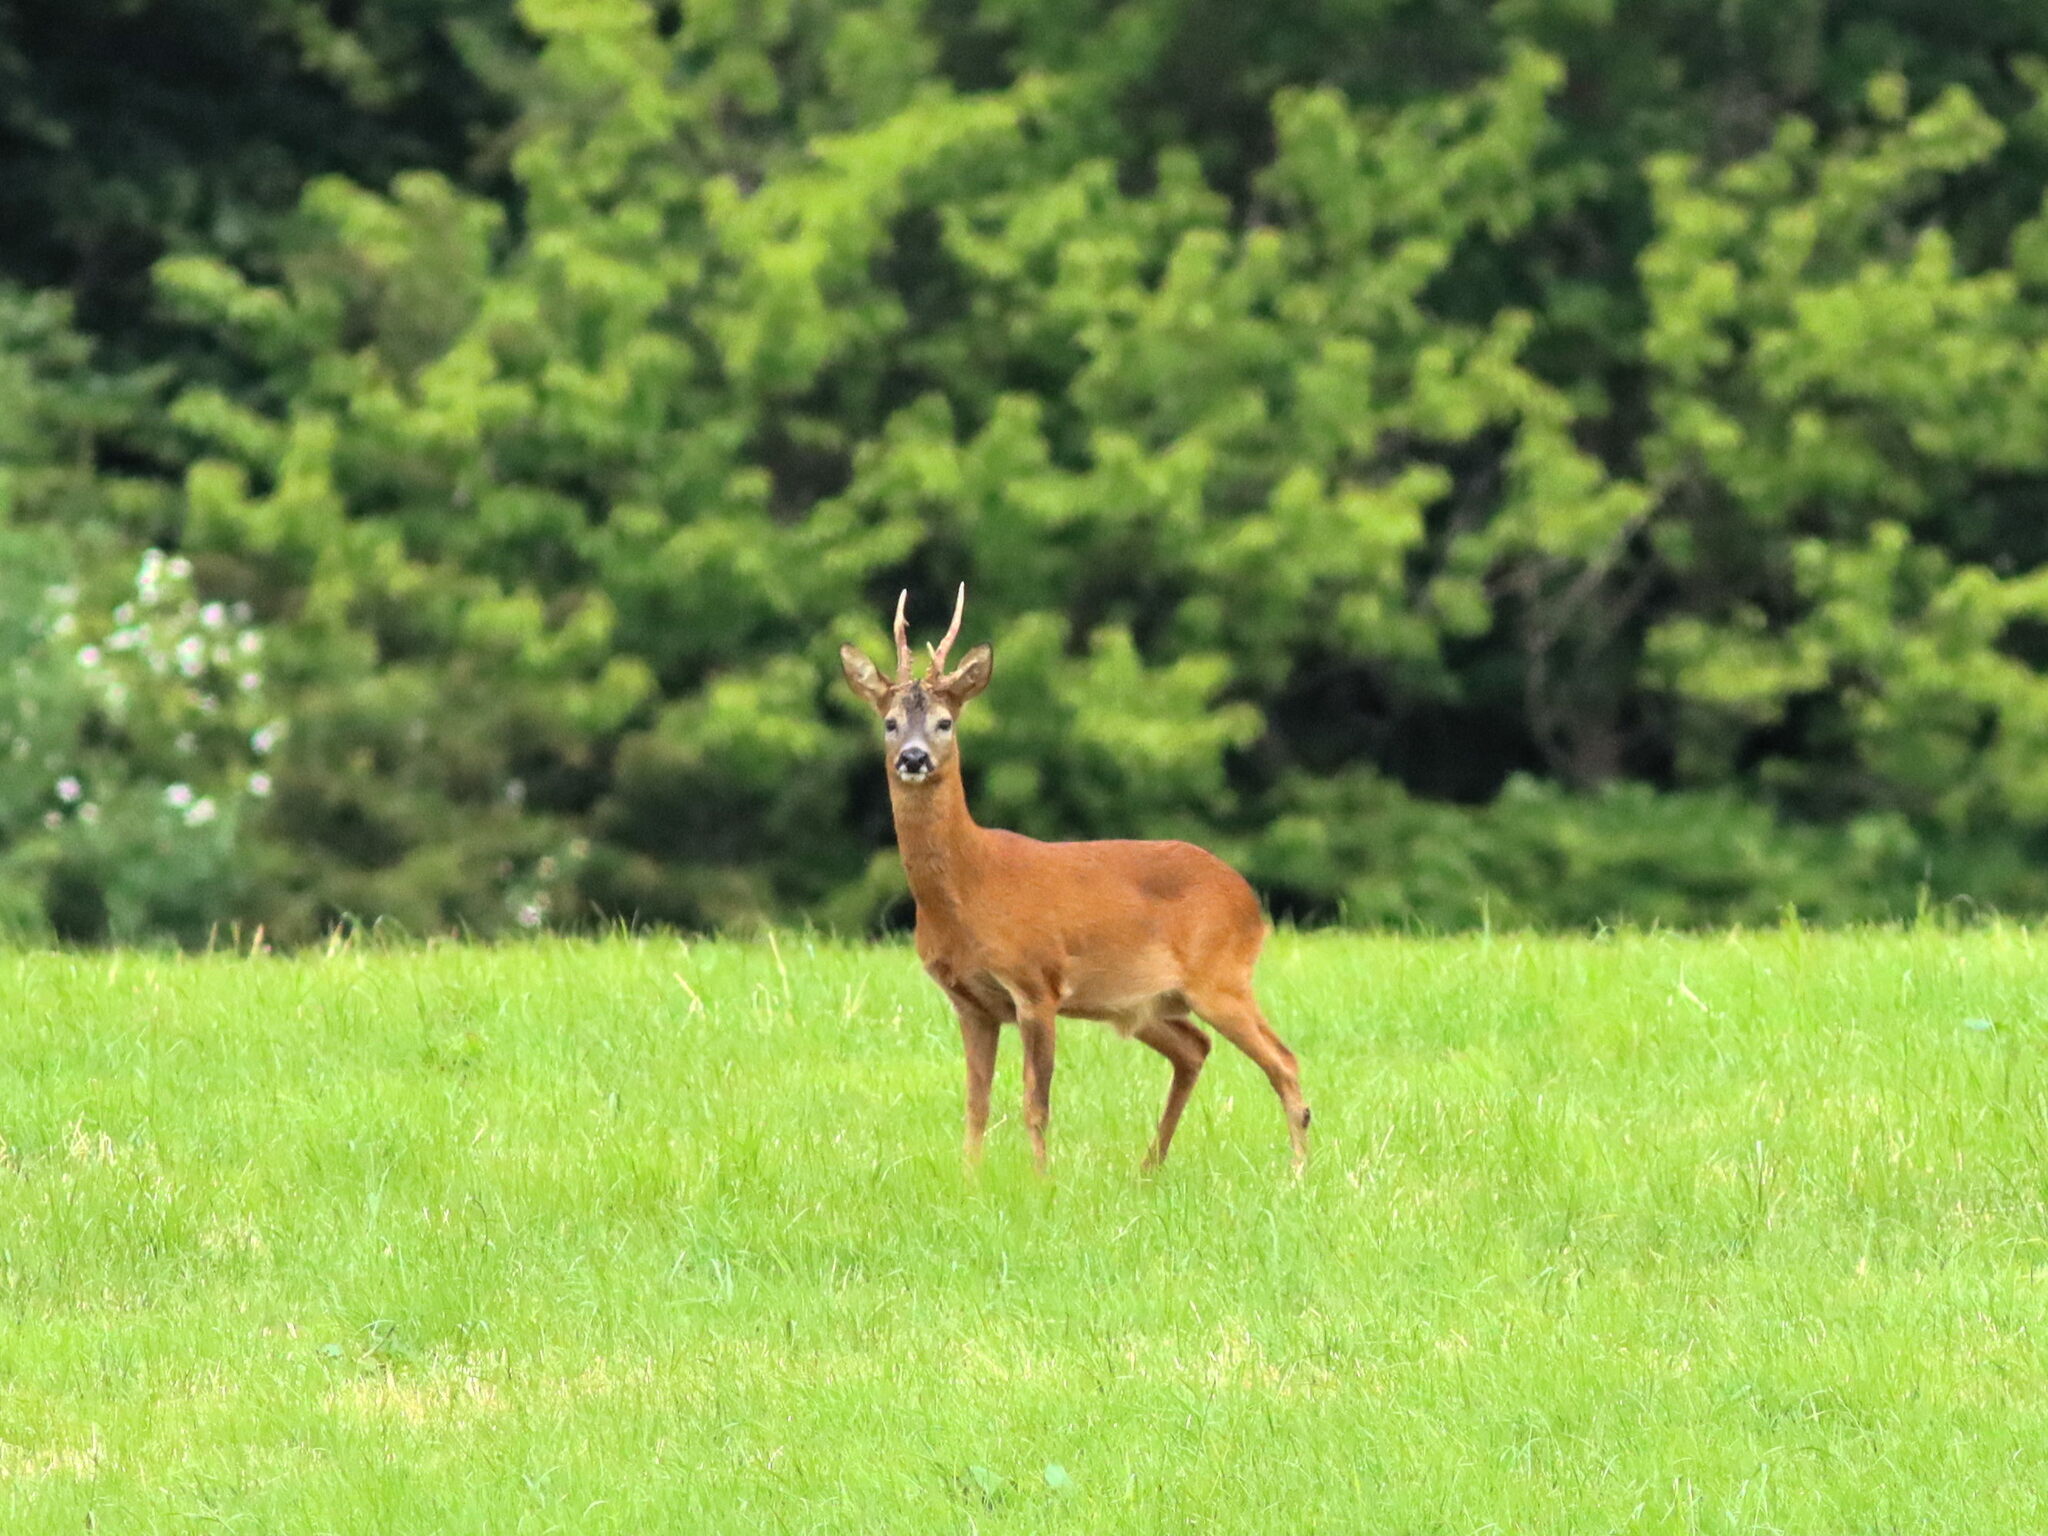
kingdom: Animalia
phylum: Chordata
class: Mammalia
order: Artiodactyla
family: Cervidae
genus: Capreolus
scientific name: Capreolus capreolus
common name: Western roe deer
